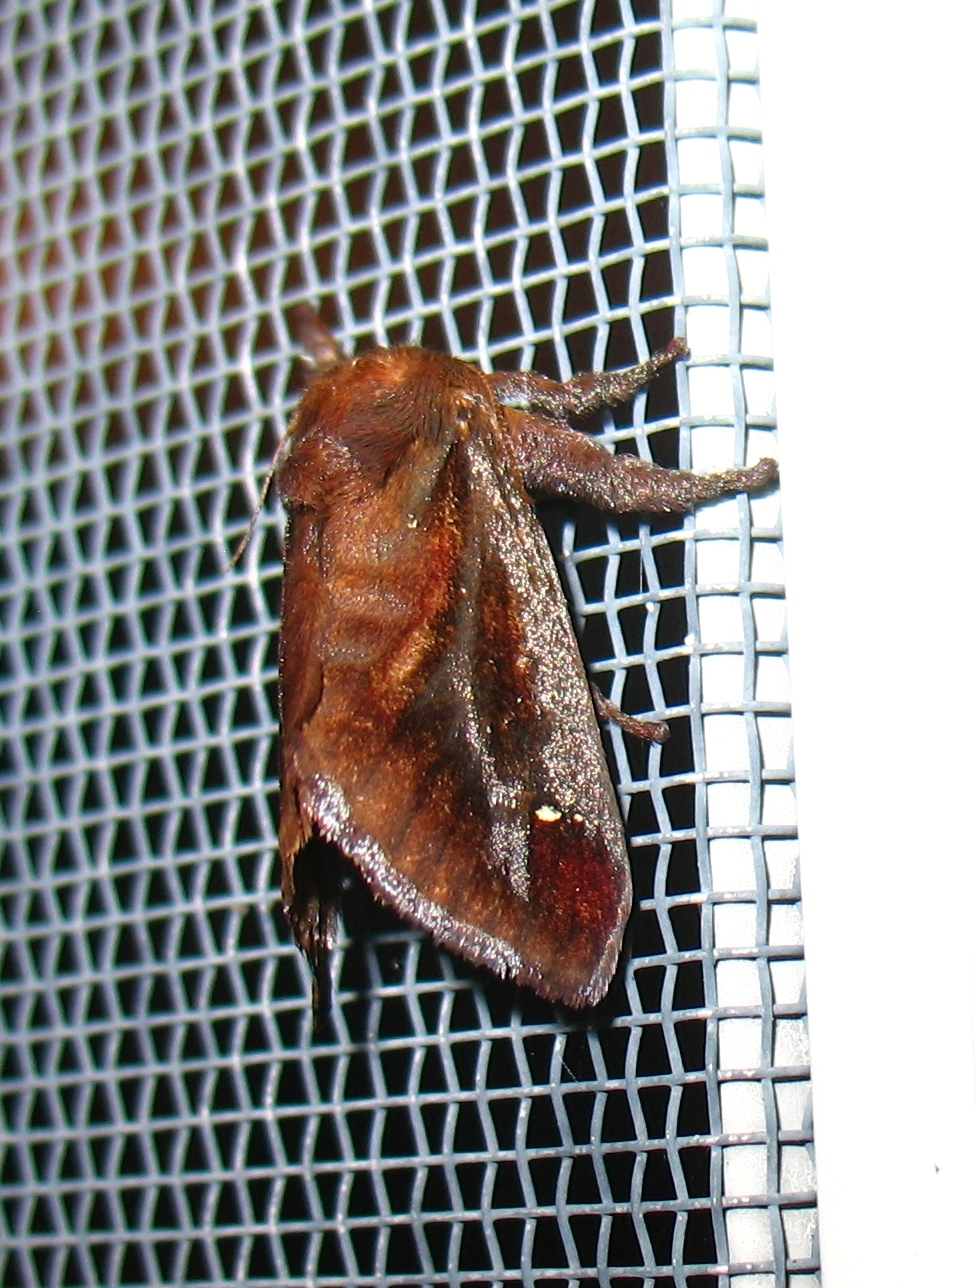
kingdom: Animalia
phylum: Arthropoda
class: Insecta
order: Lepidoptera
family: Limacodidae
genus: Acharia
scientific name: Acharia stimulea
